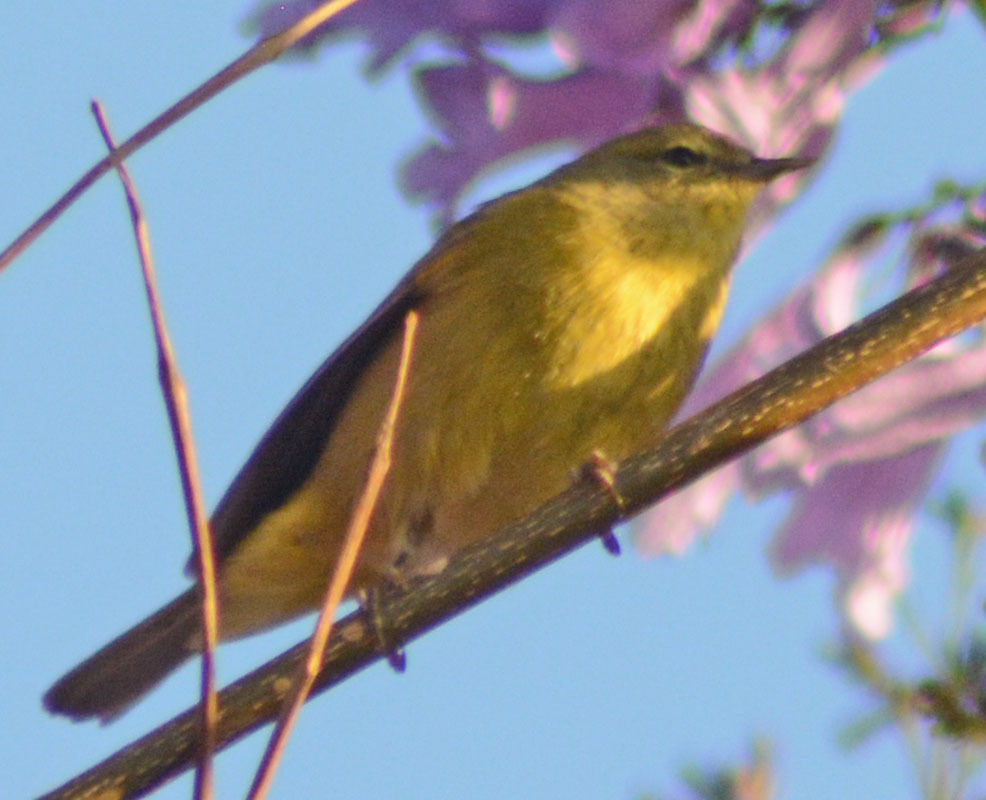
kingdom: Animalia
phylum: Chordata
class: Aves
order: Passeriformes
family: Parulidae
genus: Leiothlypis
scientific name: Leiothlypis celata
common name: Orange-crowned warbler
